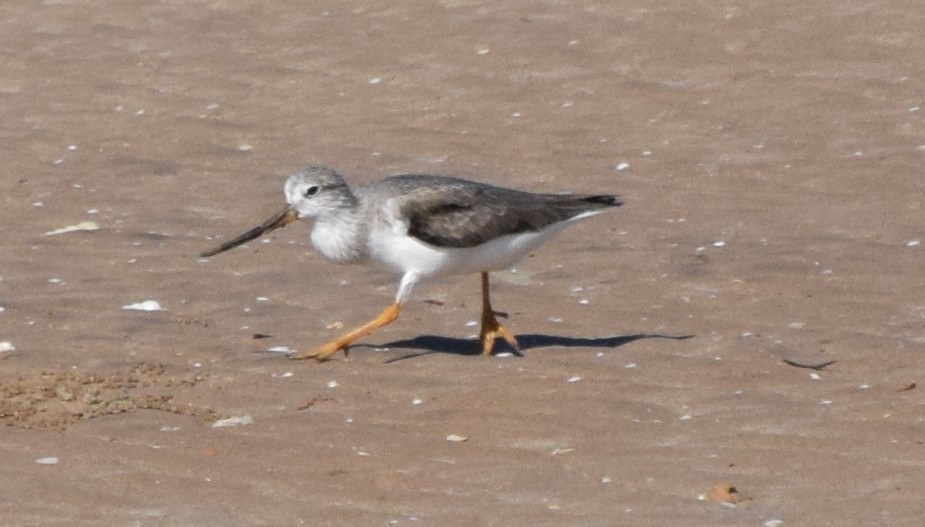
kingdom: Animalia
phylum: Chordata
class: Aves
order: Charadriiformes
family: Scolopacidae
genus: Xenus
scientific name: Xenus cinereus
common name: Terek sandpiper
